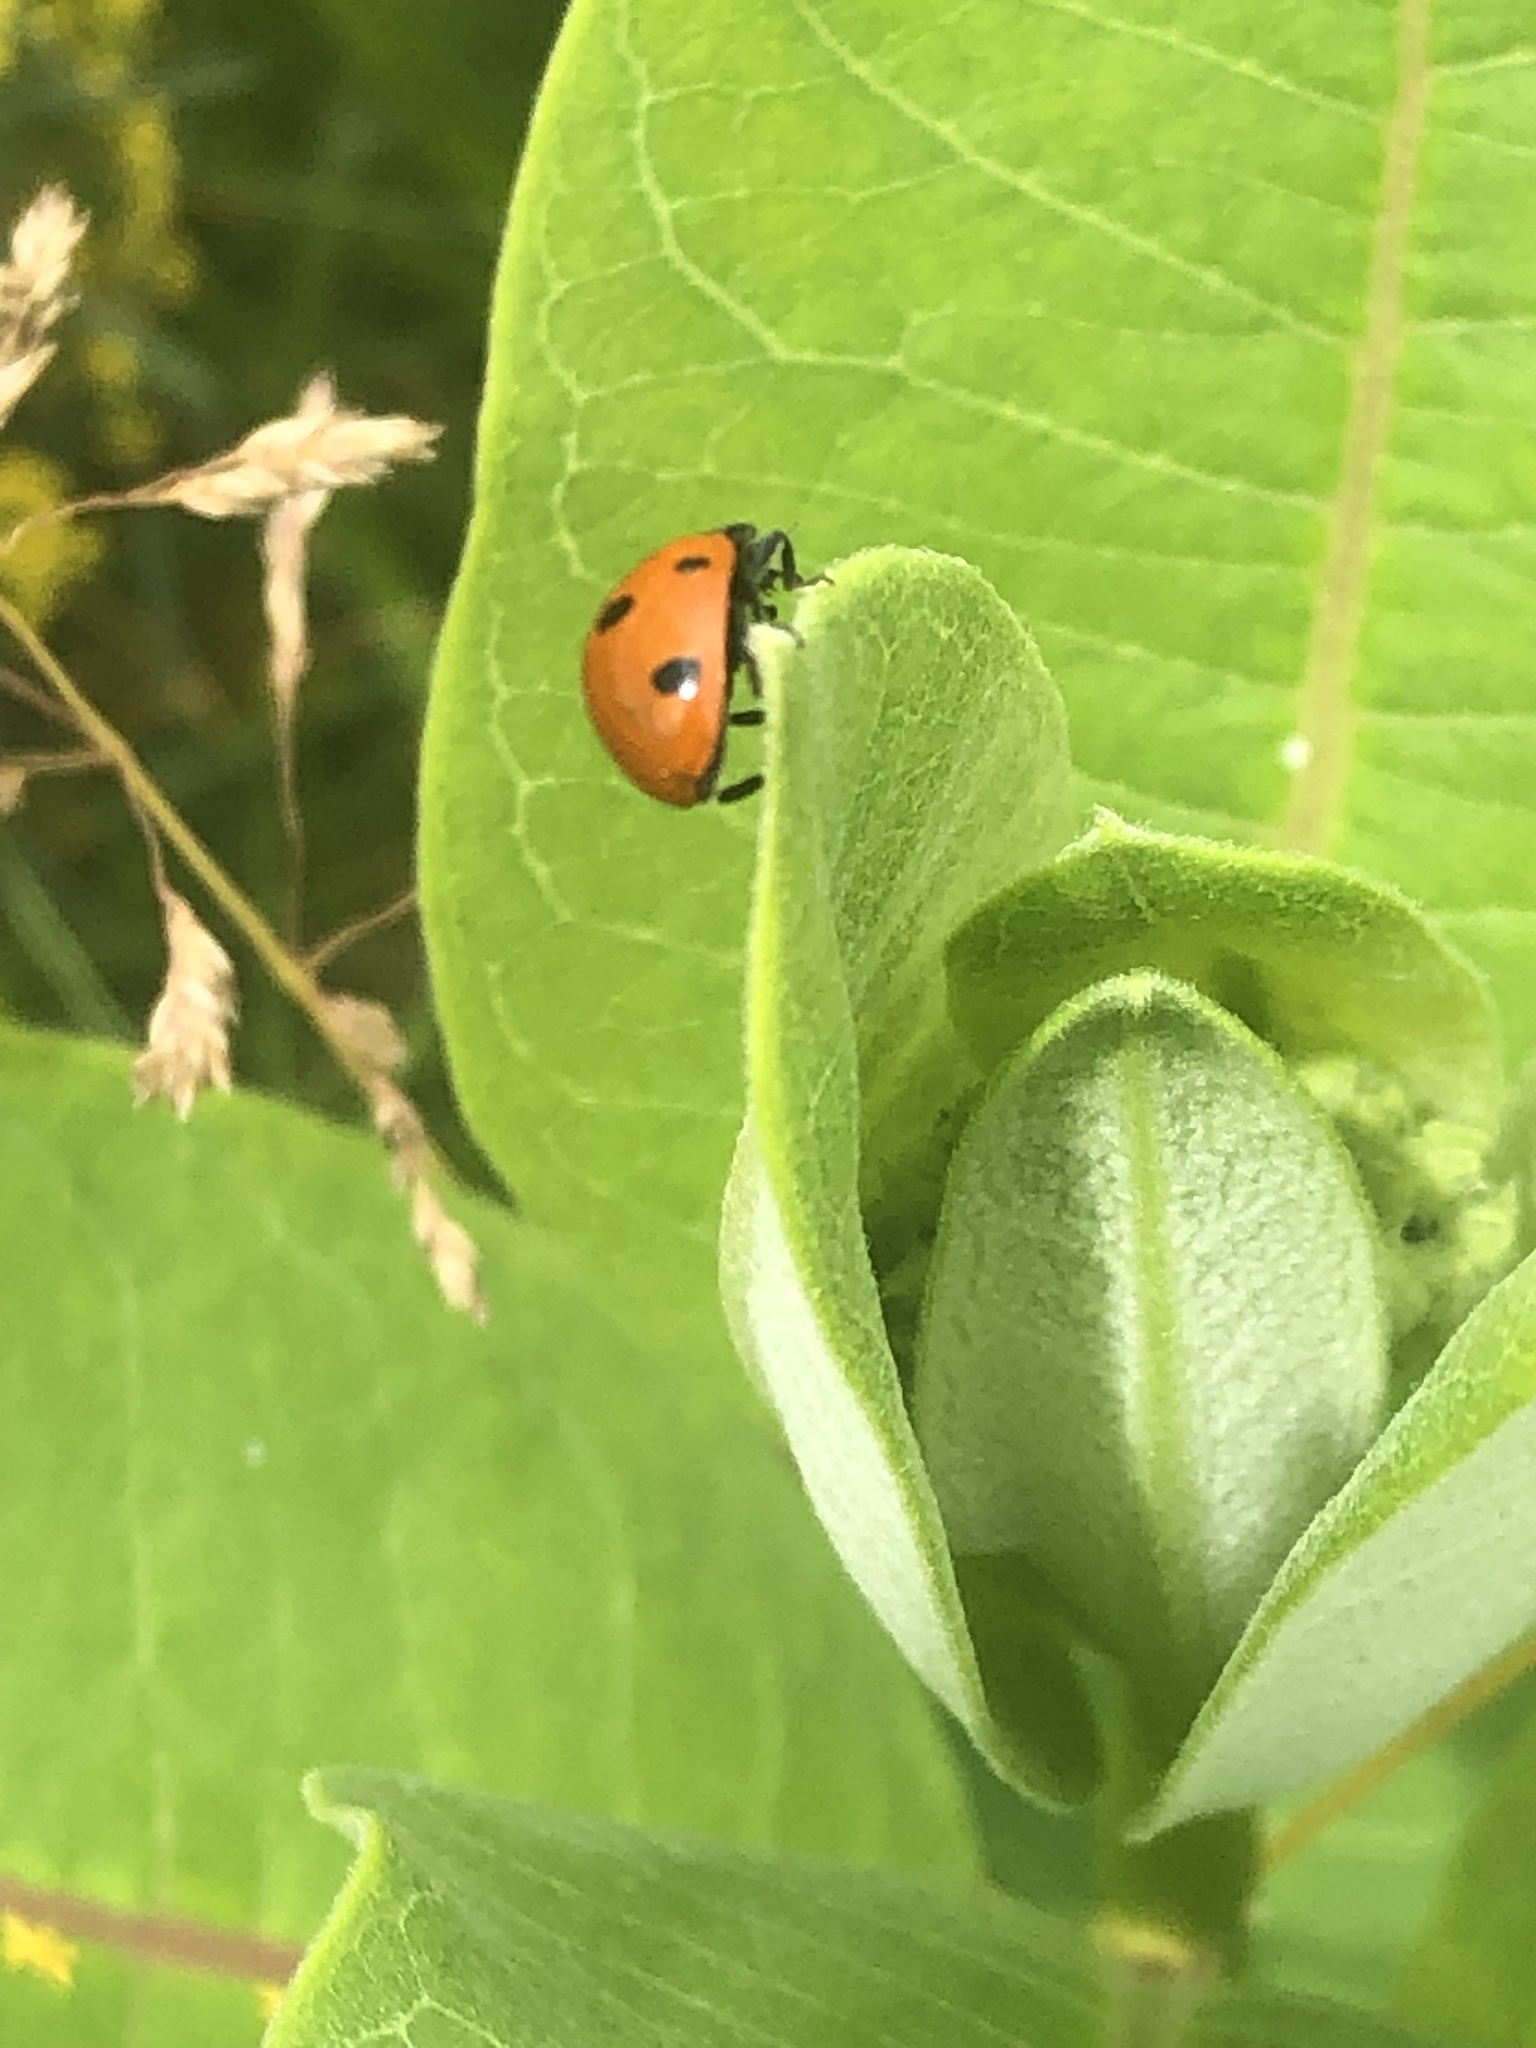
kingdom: Animalia
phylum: Arthropoda
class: Insecta
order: Coleoptera
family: Coccinellidae
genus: Coccinella
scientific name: Coccinella septempunctata
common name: Sevenspotted lady beetle
